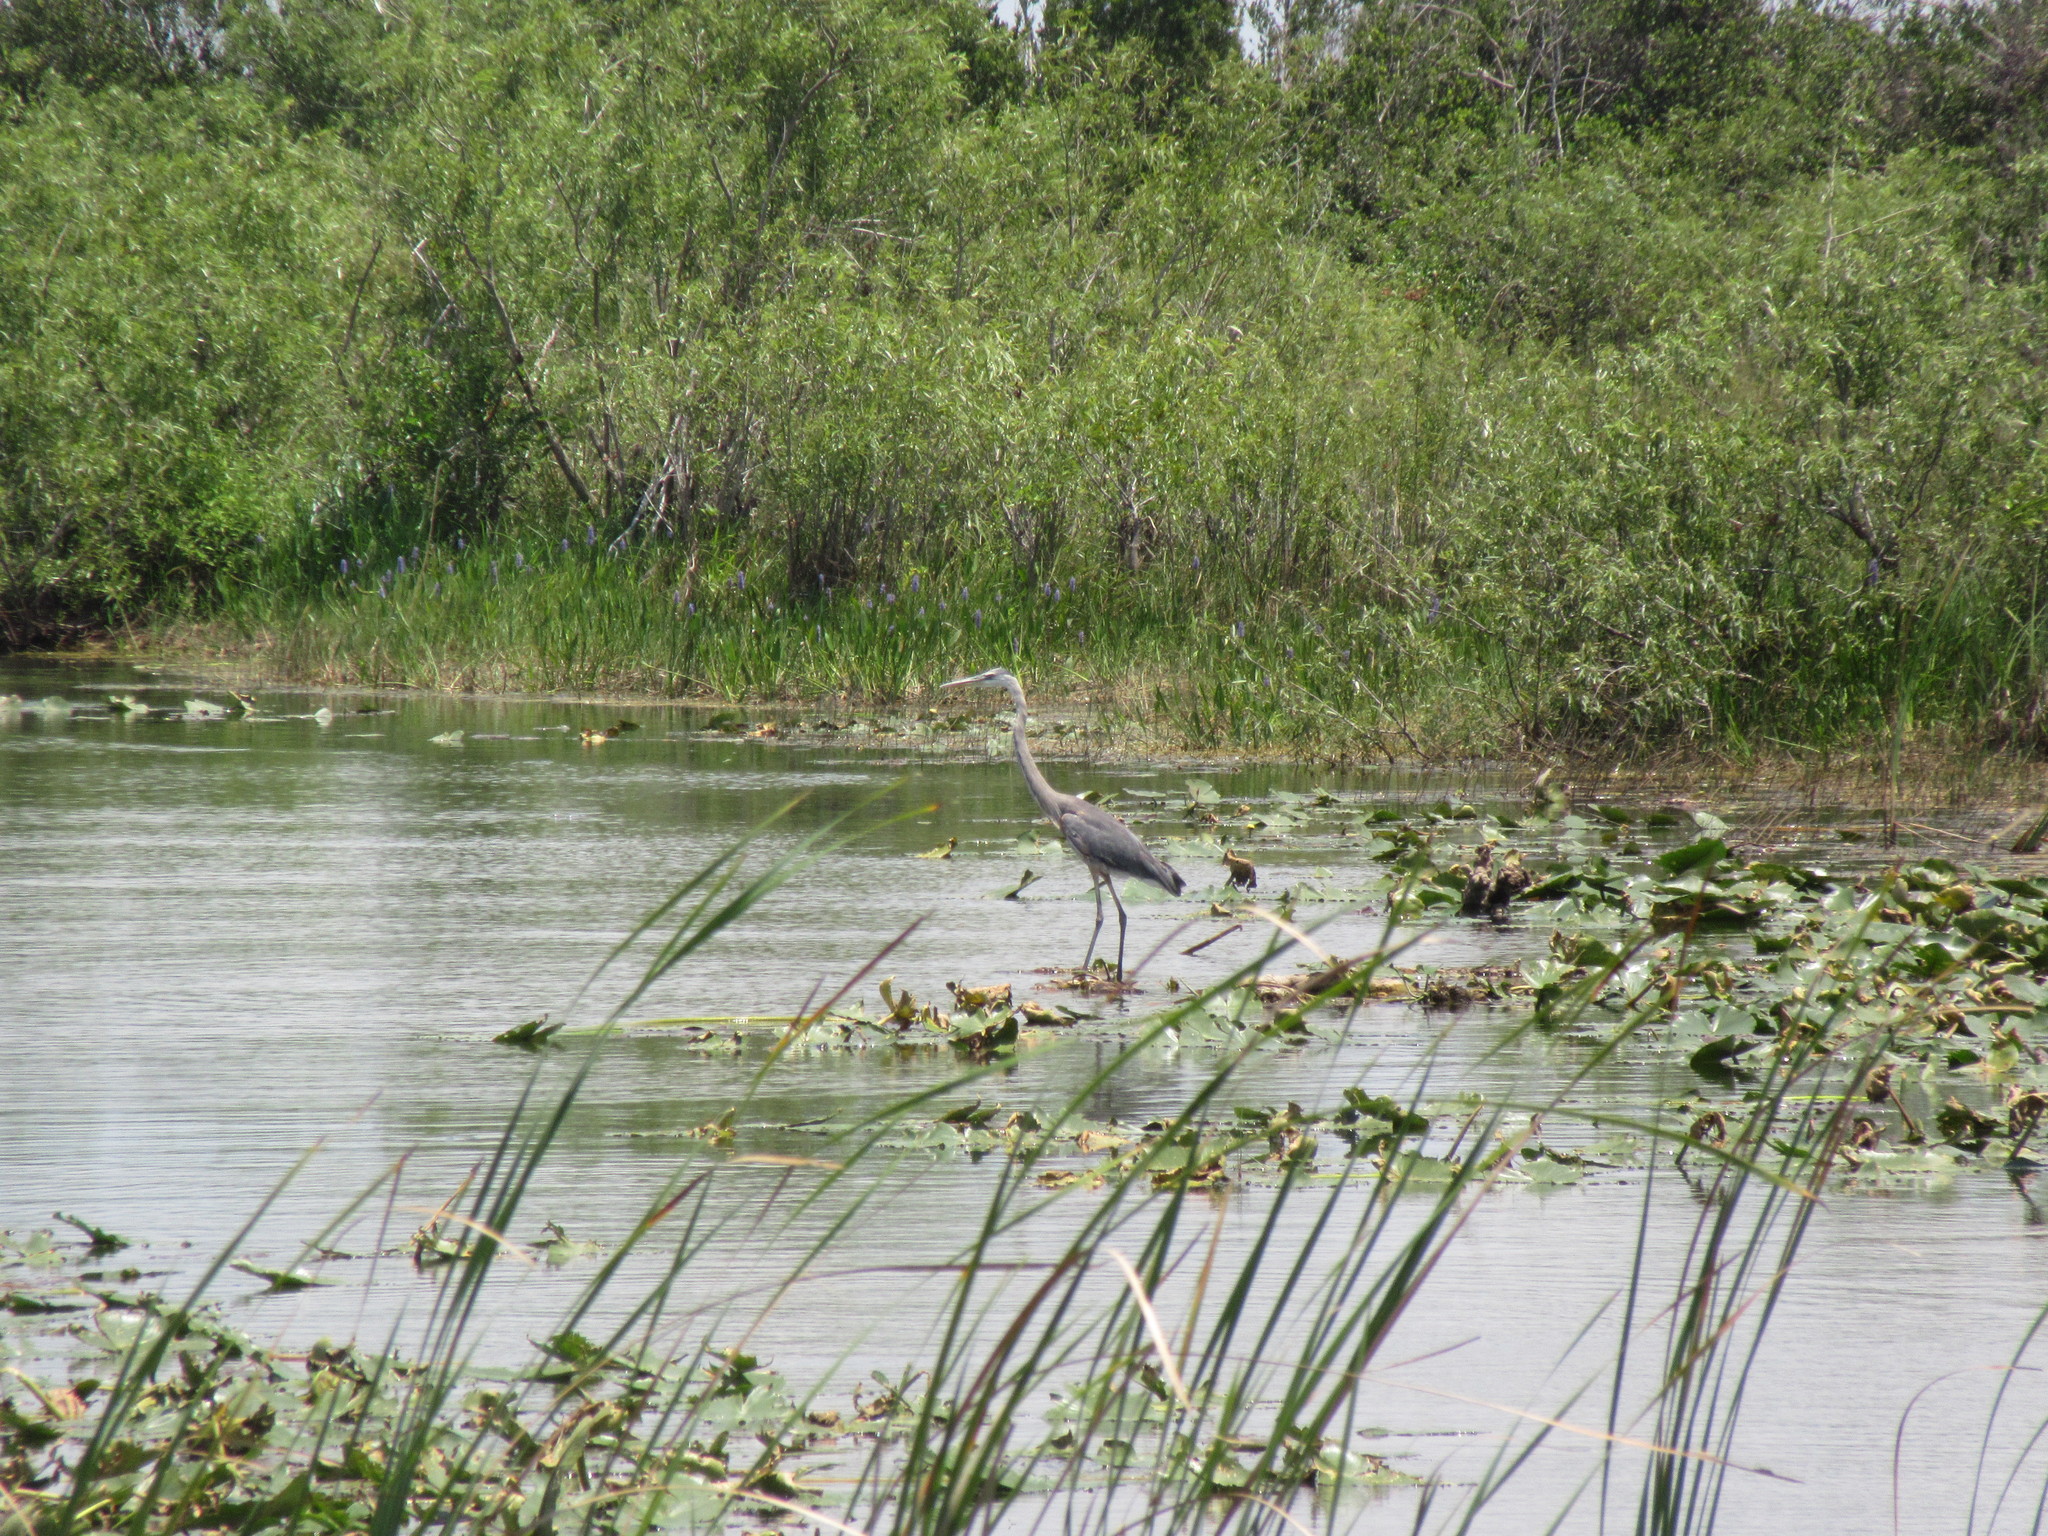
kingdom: Animalia
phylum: Chordata
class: Aves
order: Pelecaniformes
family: Ardeidae
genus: Ardea
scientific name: Ardea herodias
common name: Great blue heron
